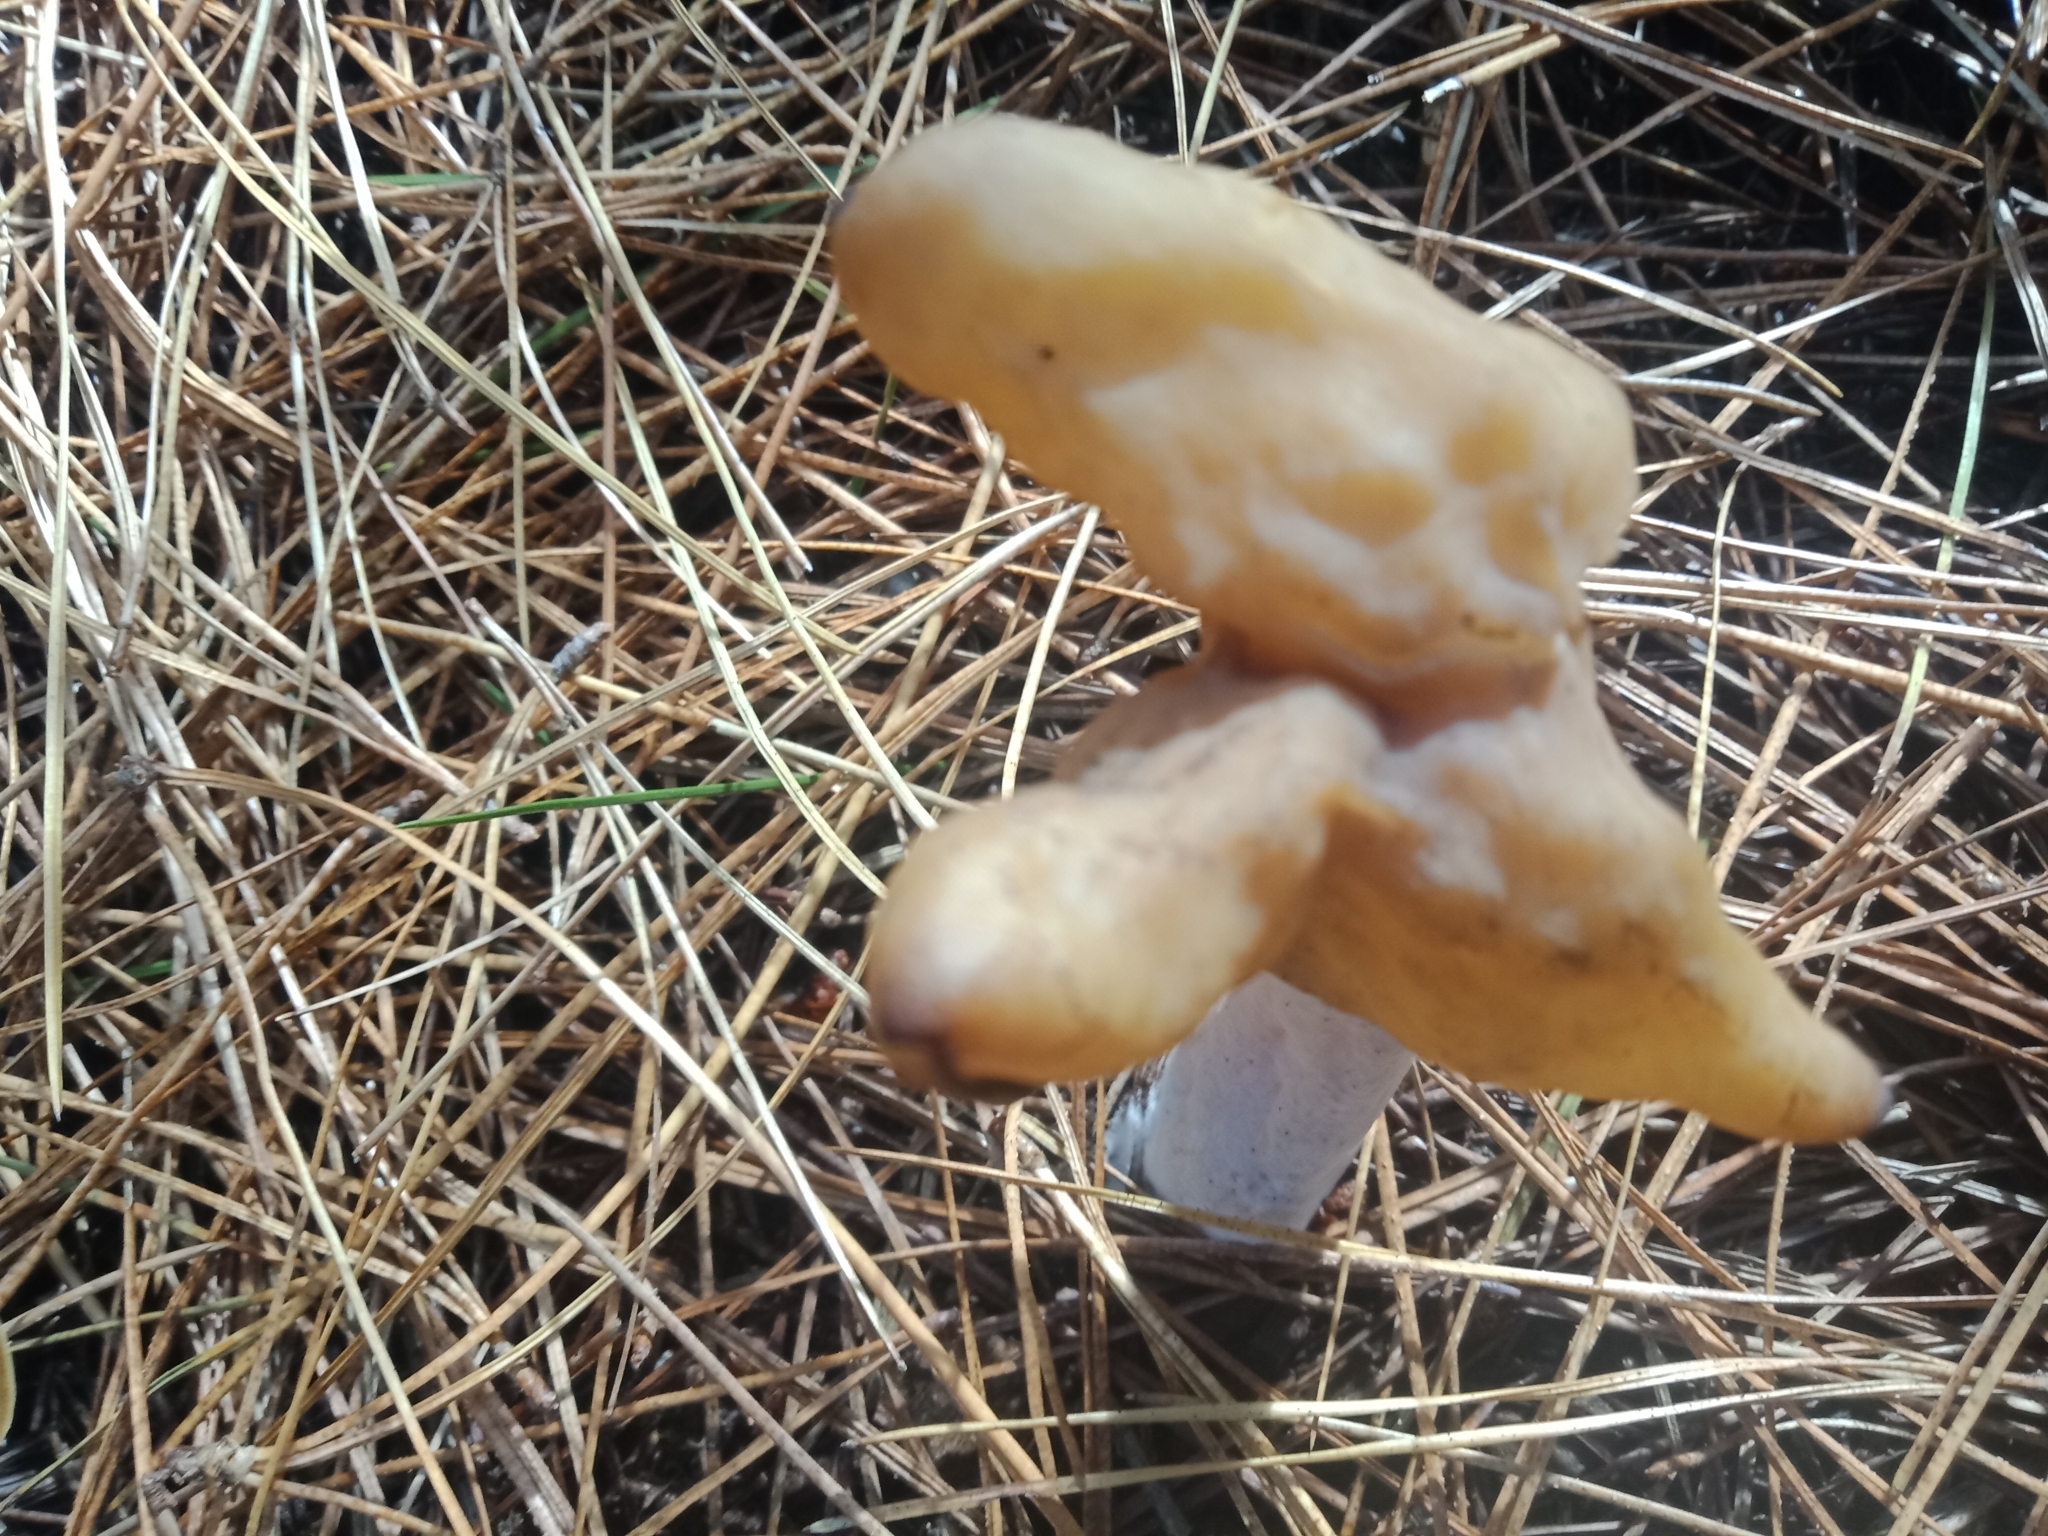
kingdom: Fungi
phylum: Ascomycota
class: Pezizomycetes
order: Pezizales
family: Discinaceae
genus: Gyromitra
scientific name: Gyromitra infula
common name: Pouched false morel
